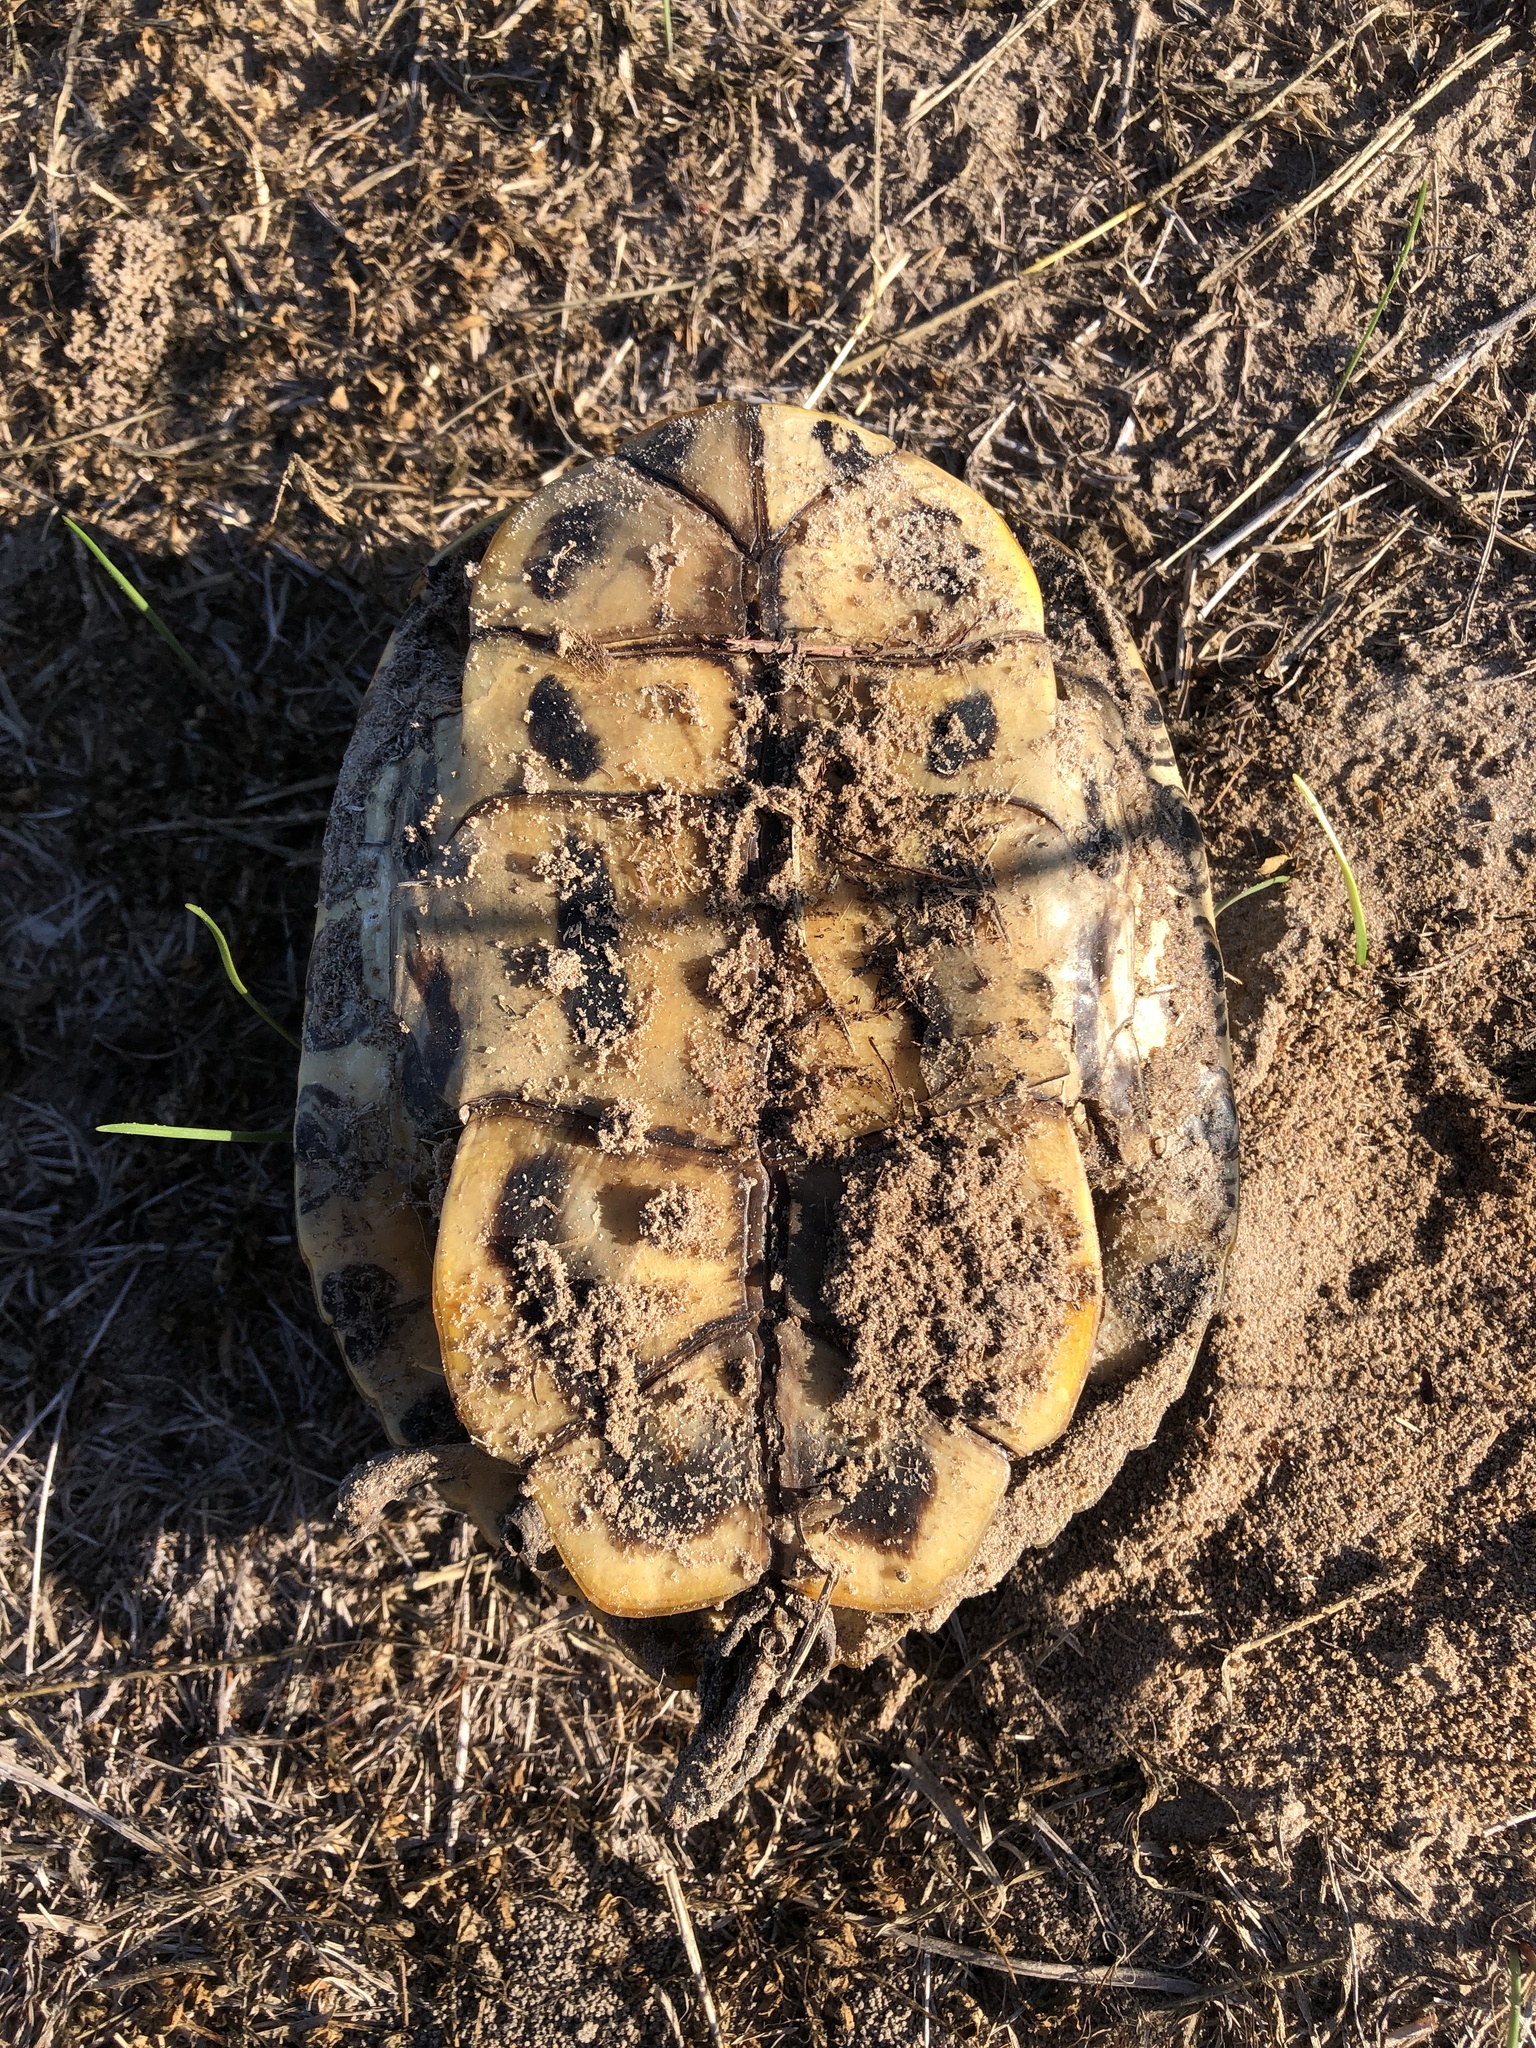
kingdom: Animalia
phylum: Chordata
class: Testudines
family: Emydidae
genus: Trachemys
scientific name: Trachemys scripta
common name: Slider
